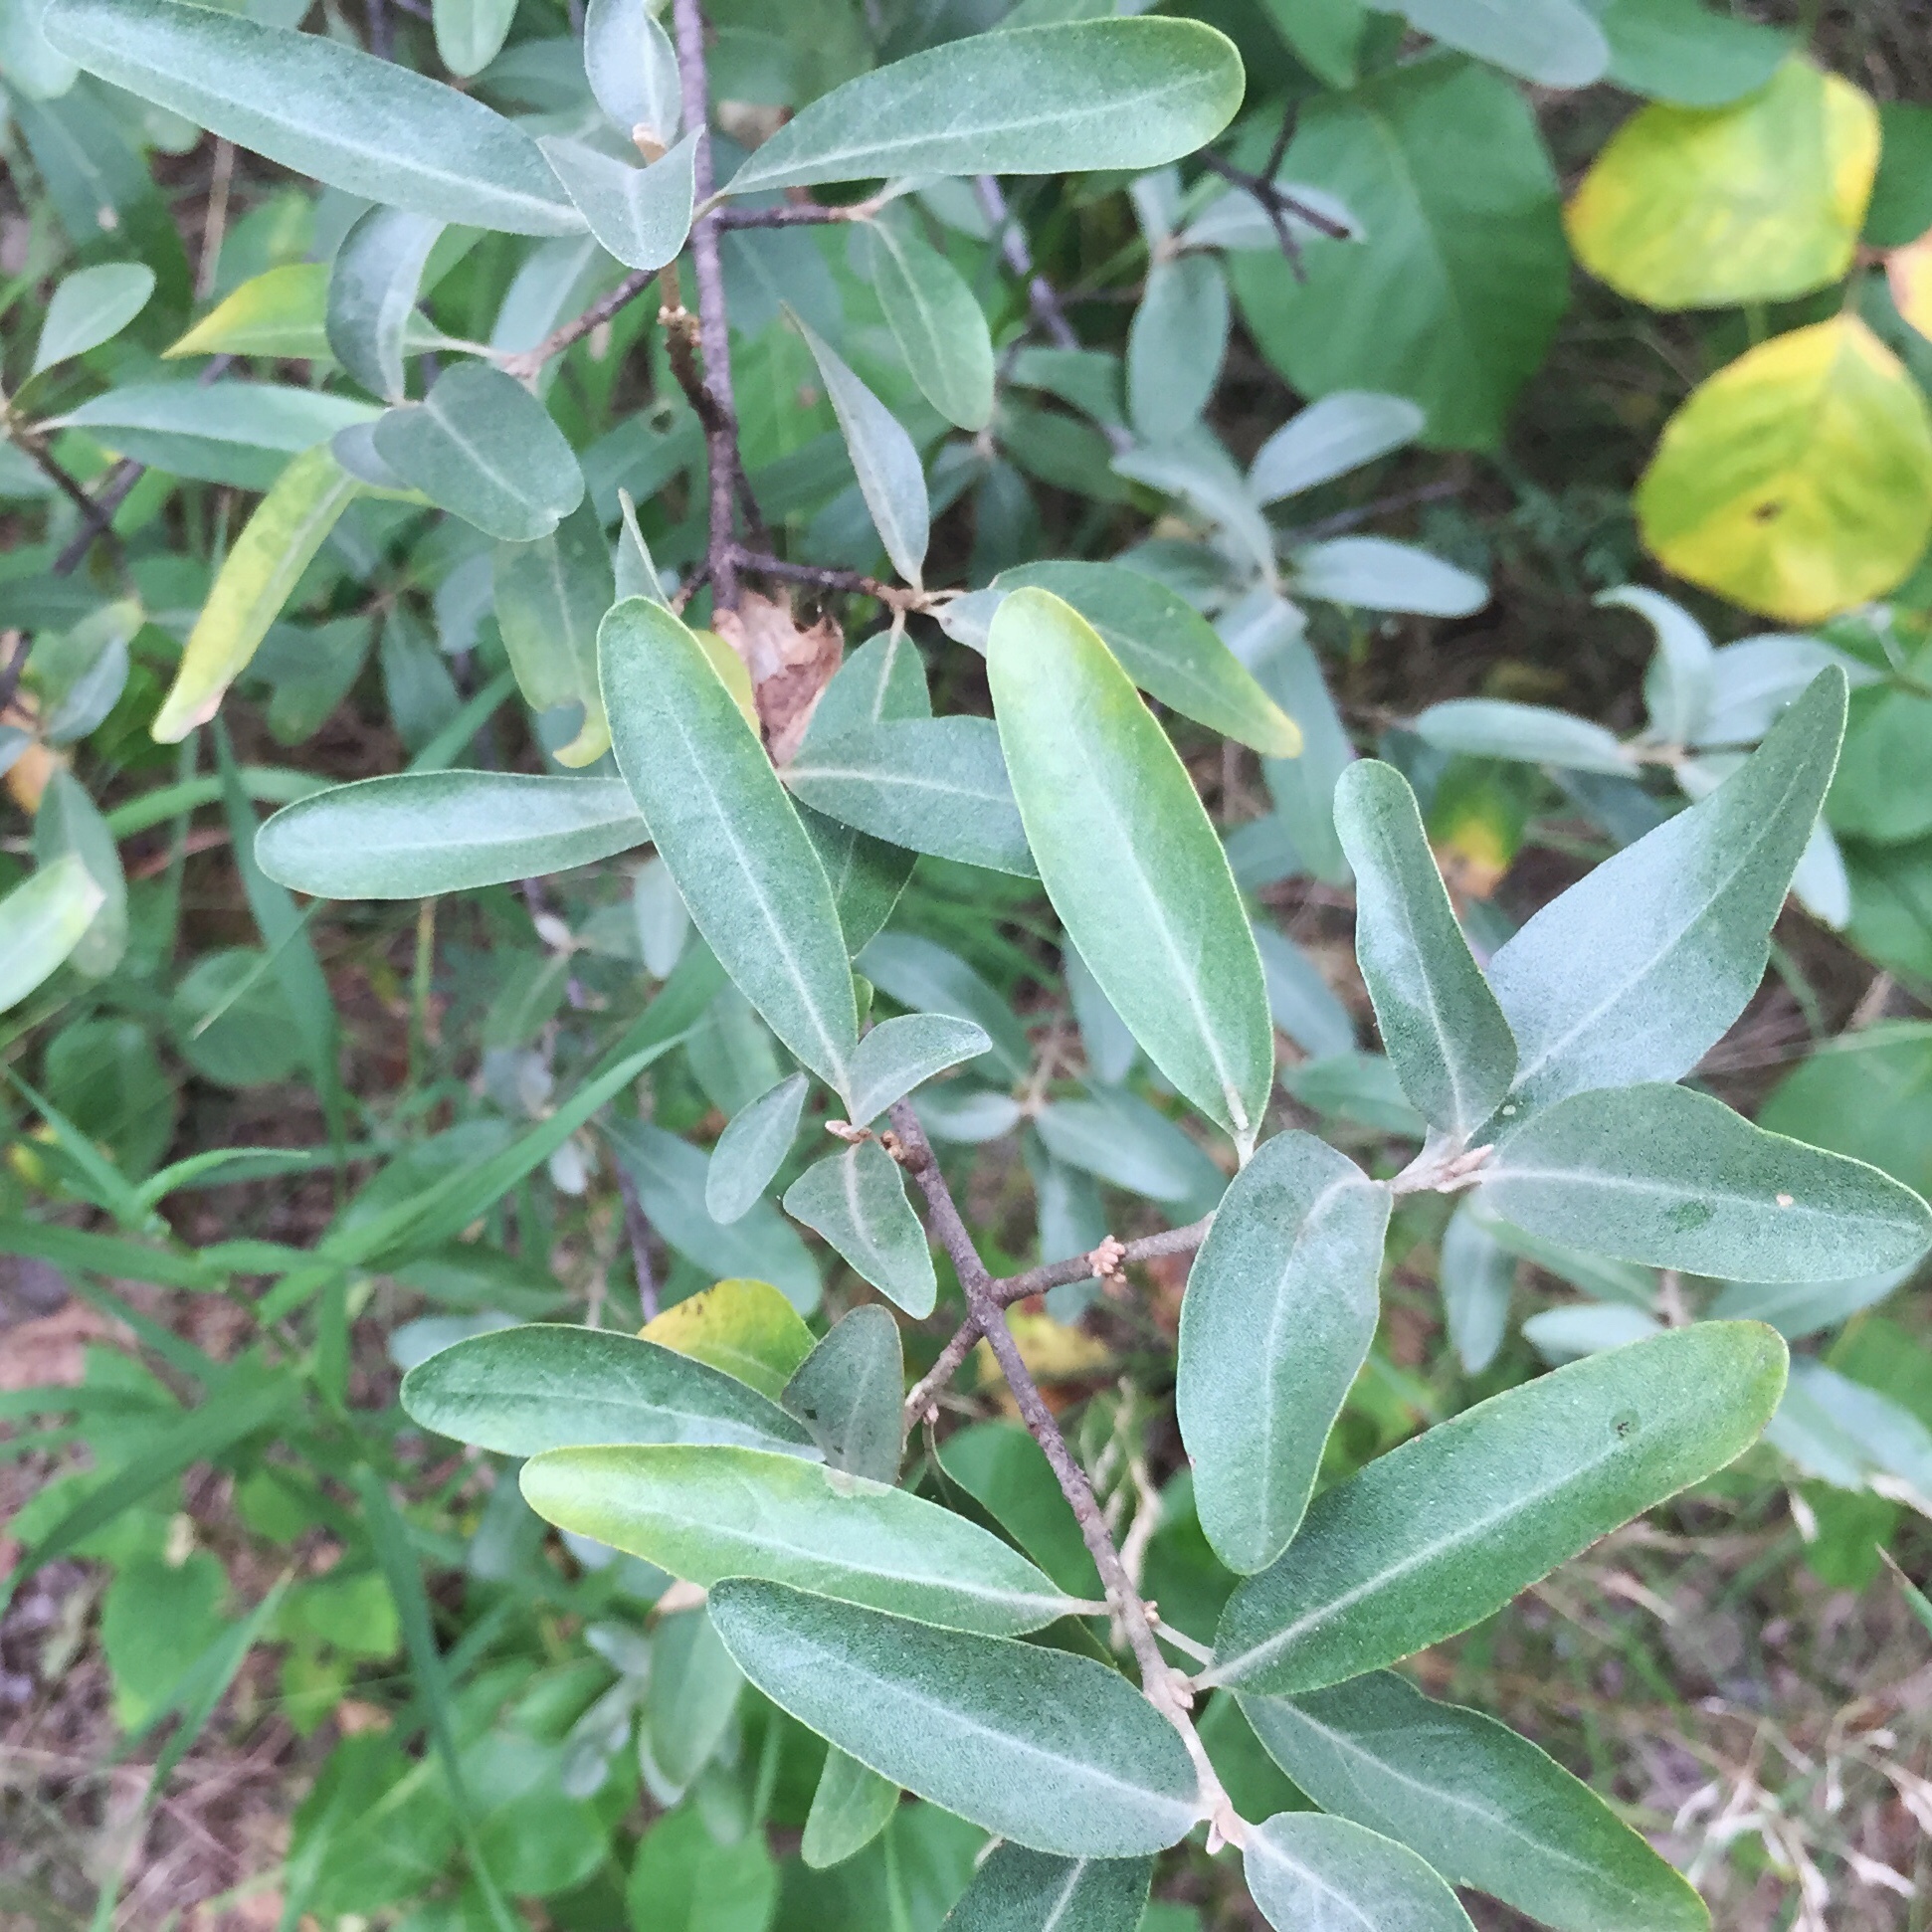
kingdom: Plantae
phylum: Tracheophyta
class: Magnoliopsida
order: Rosales
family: Elaeagnaceae
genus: Shepherdia
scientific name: Shepherdia argentea
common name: Silver buffaloberry
